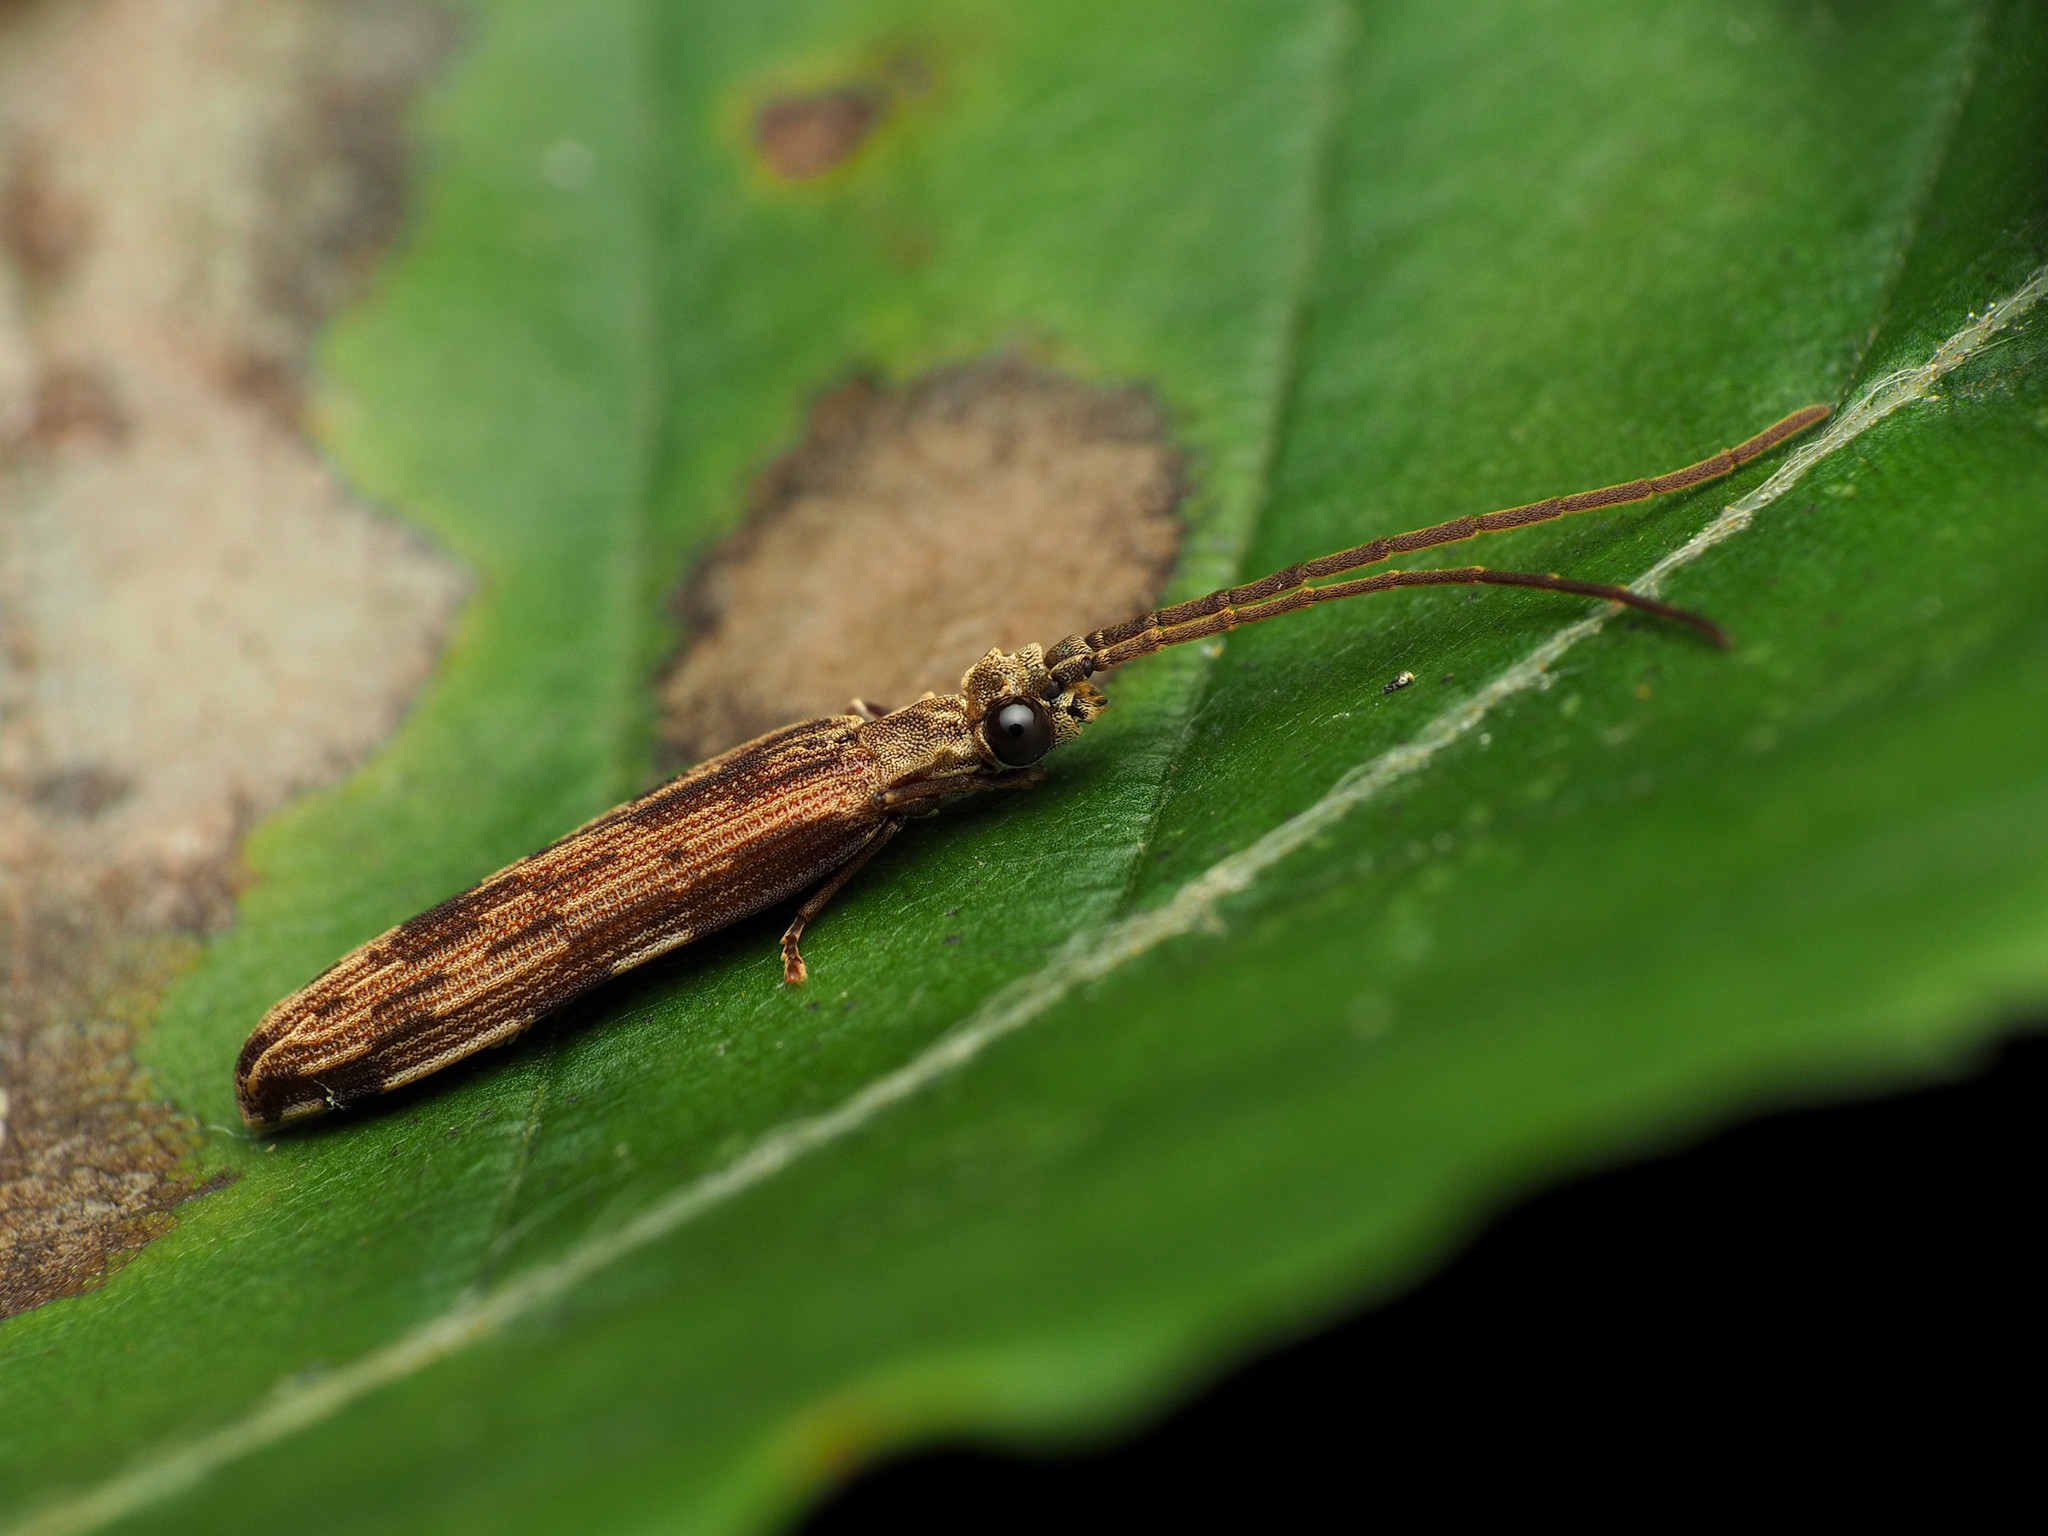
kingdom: Animalia
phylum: Arthropoda
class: Insecta
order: Coleoptera
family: Cupedidae
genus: Tenomerga
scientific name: Tenomerga cinerea
